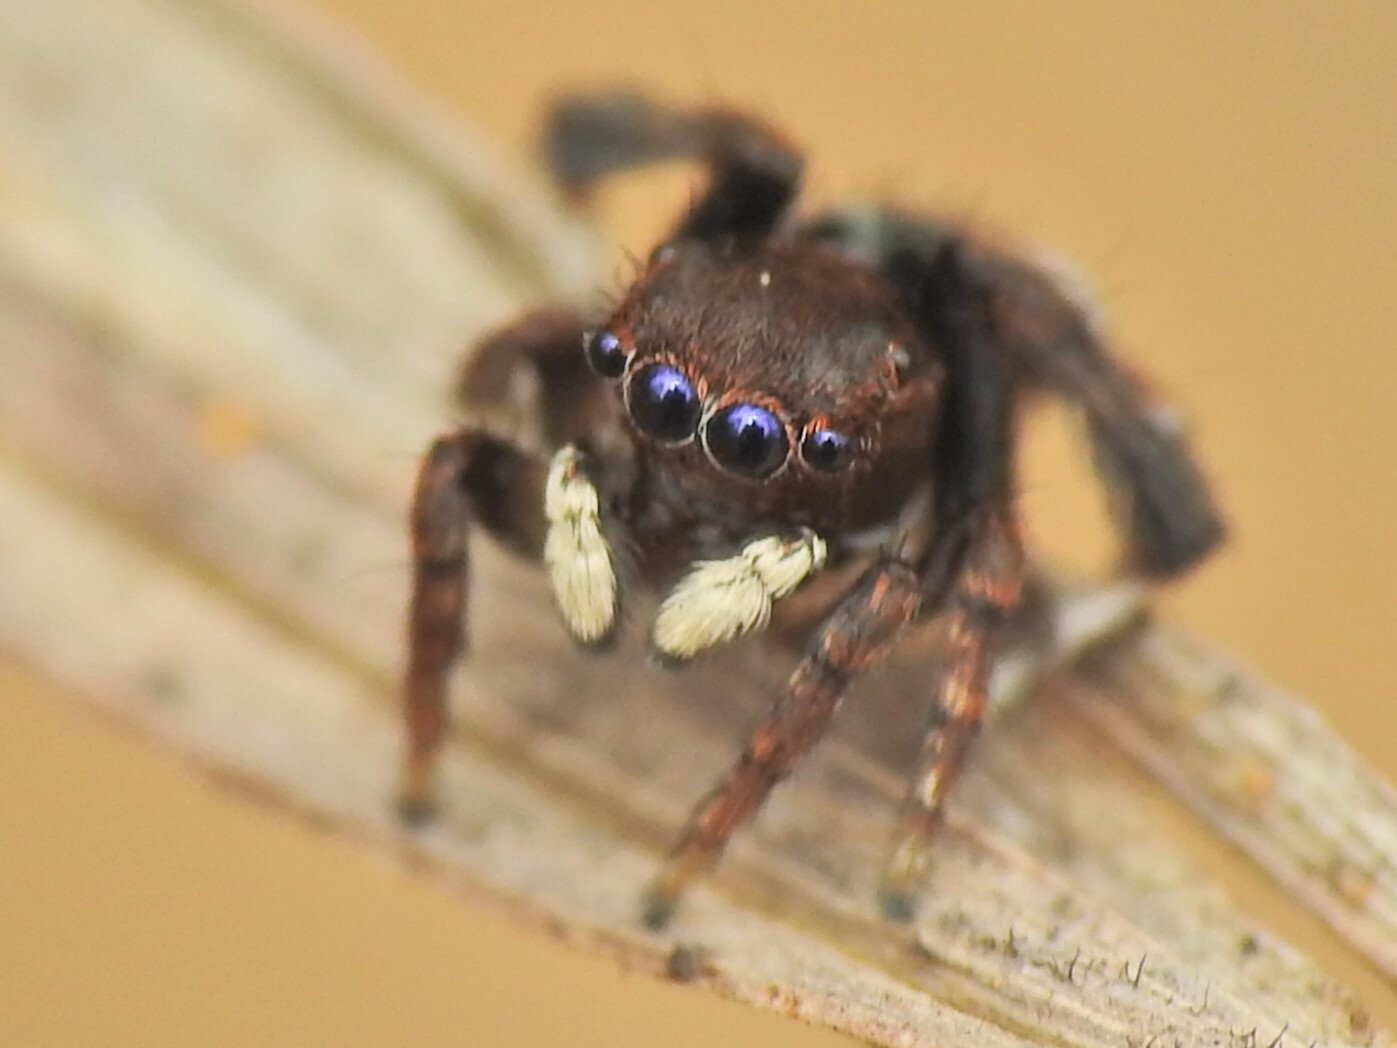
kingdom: Animalia
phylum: Arthropoda
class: Arachnida
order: Araneae
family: Salticidae
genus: Maratus
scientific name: Maratus nigromaculatus
